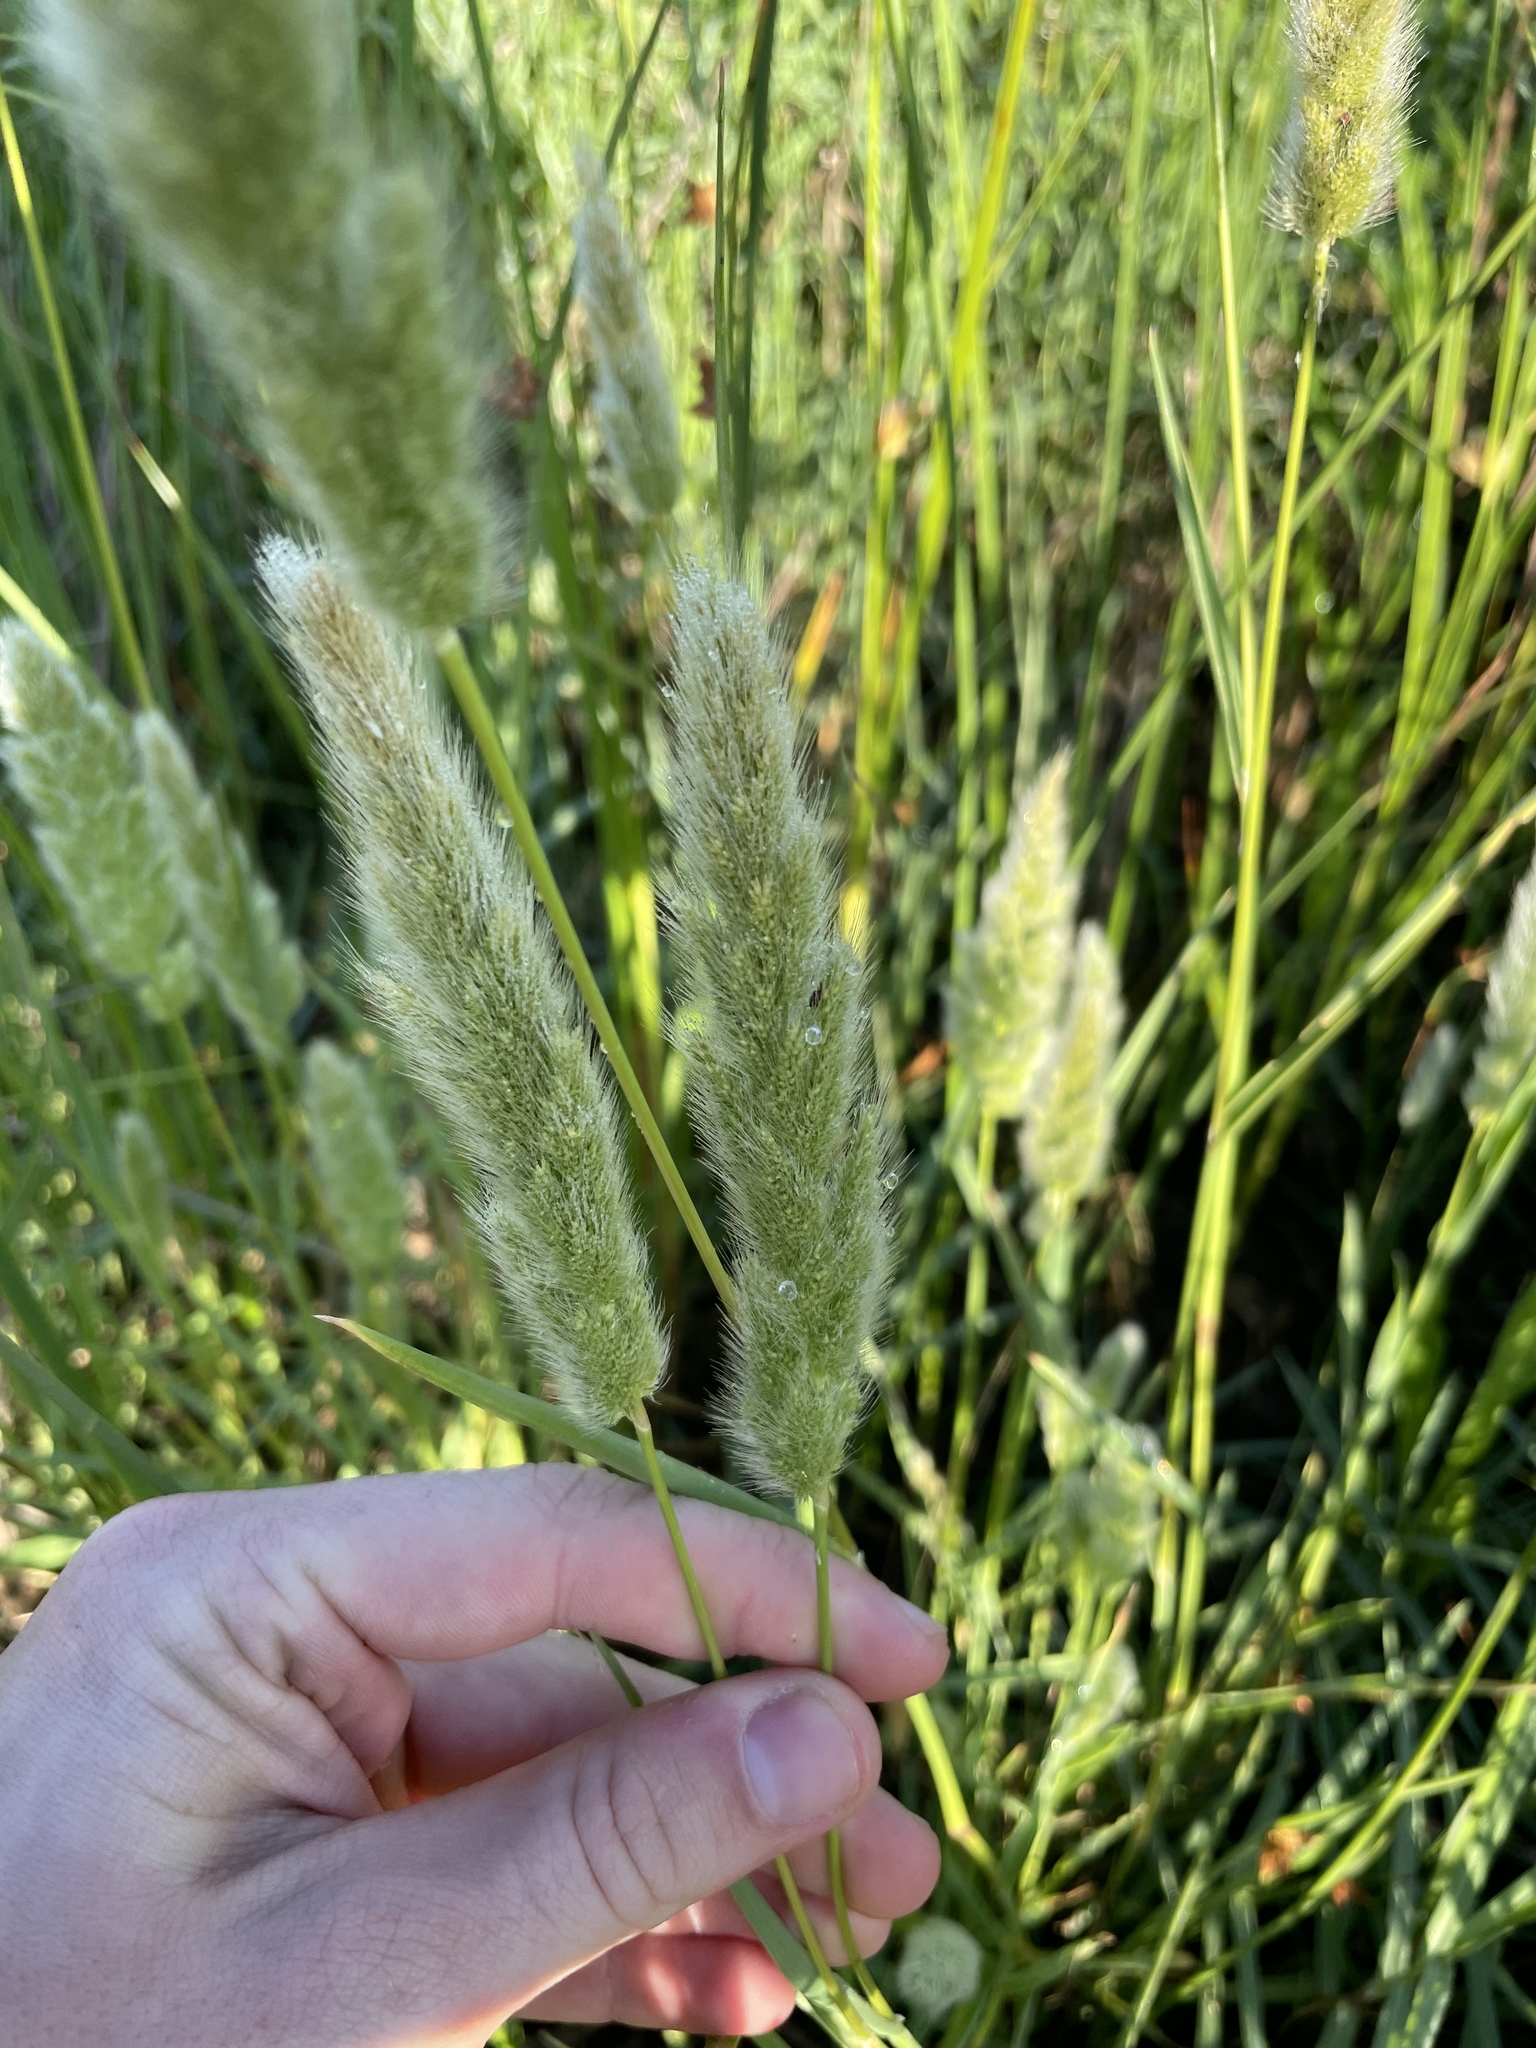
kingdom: Plantae
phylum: Tracheophyta
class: Liliopsida
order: Poales
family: Poaceae
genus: Polypogon
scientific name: Polypogon monspeliensis
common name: Annual rabbitsfoot grass
